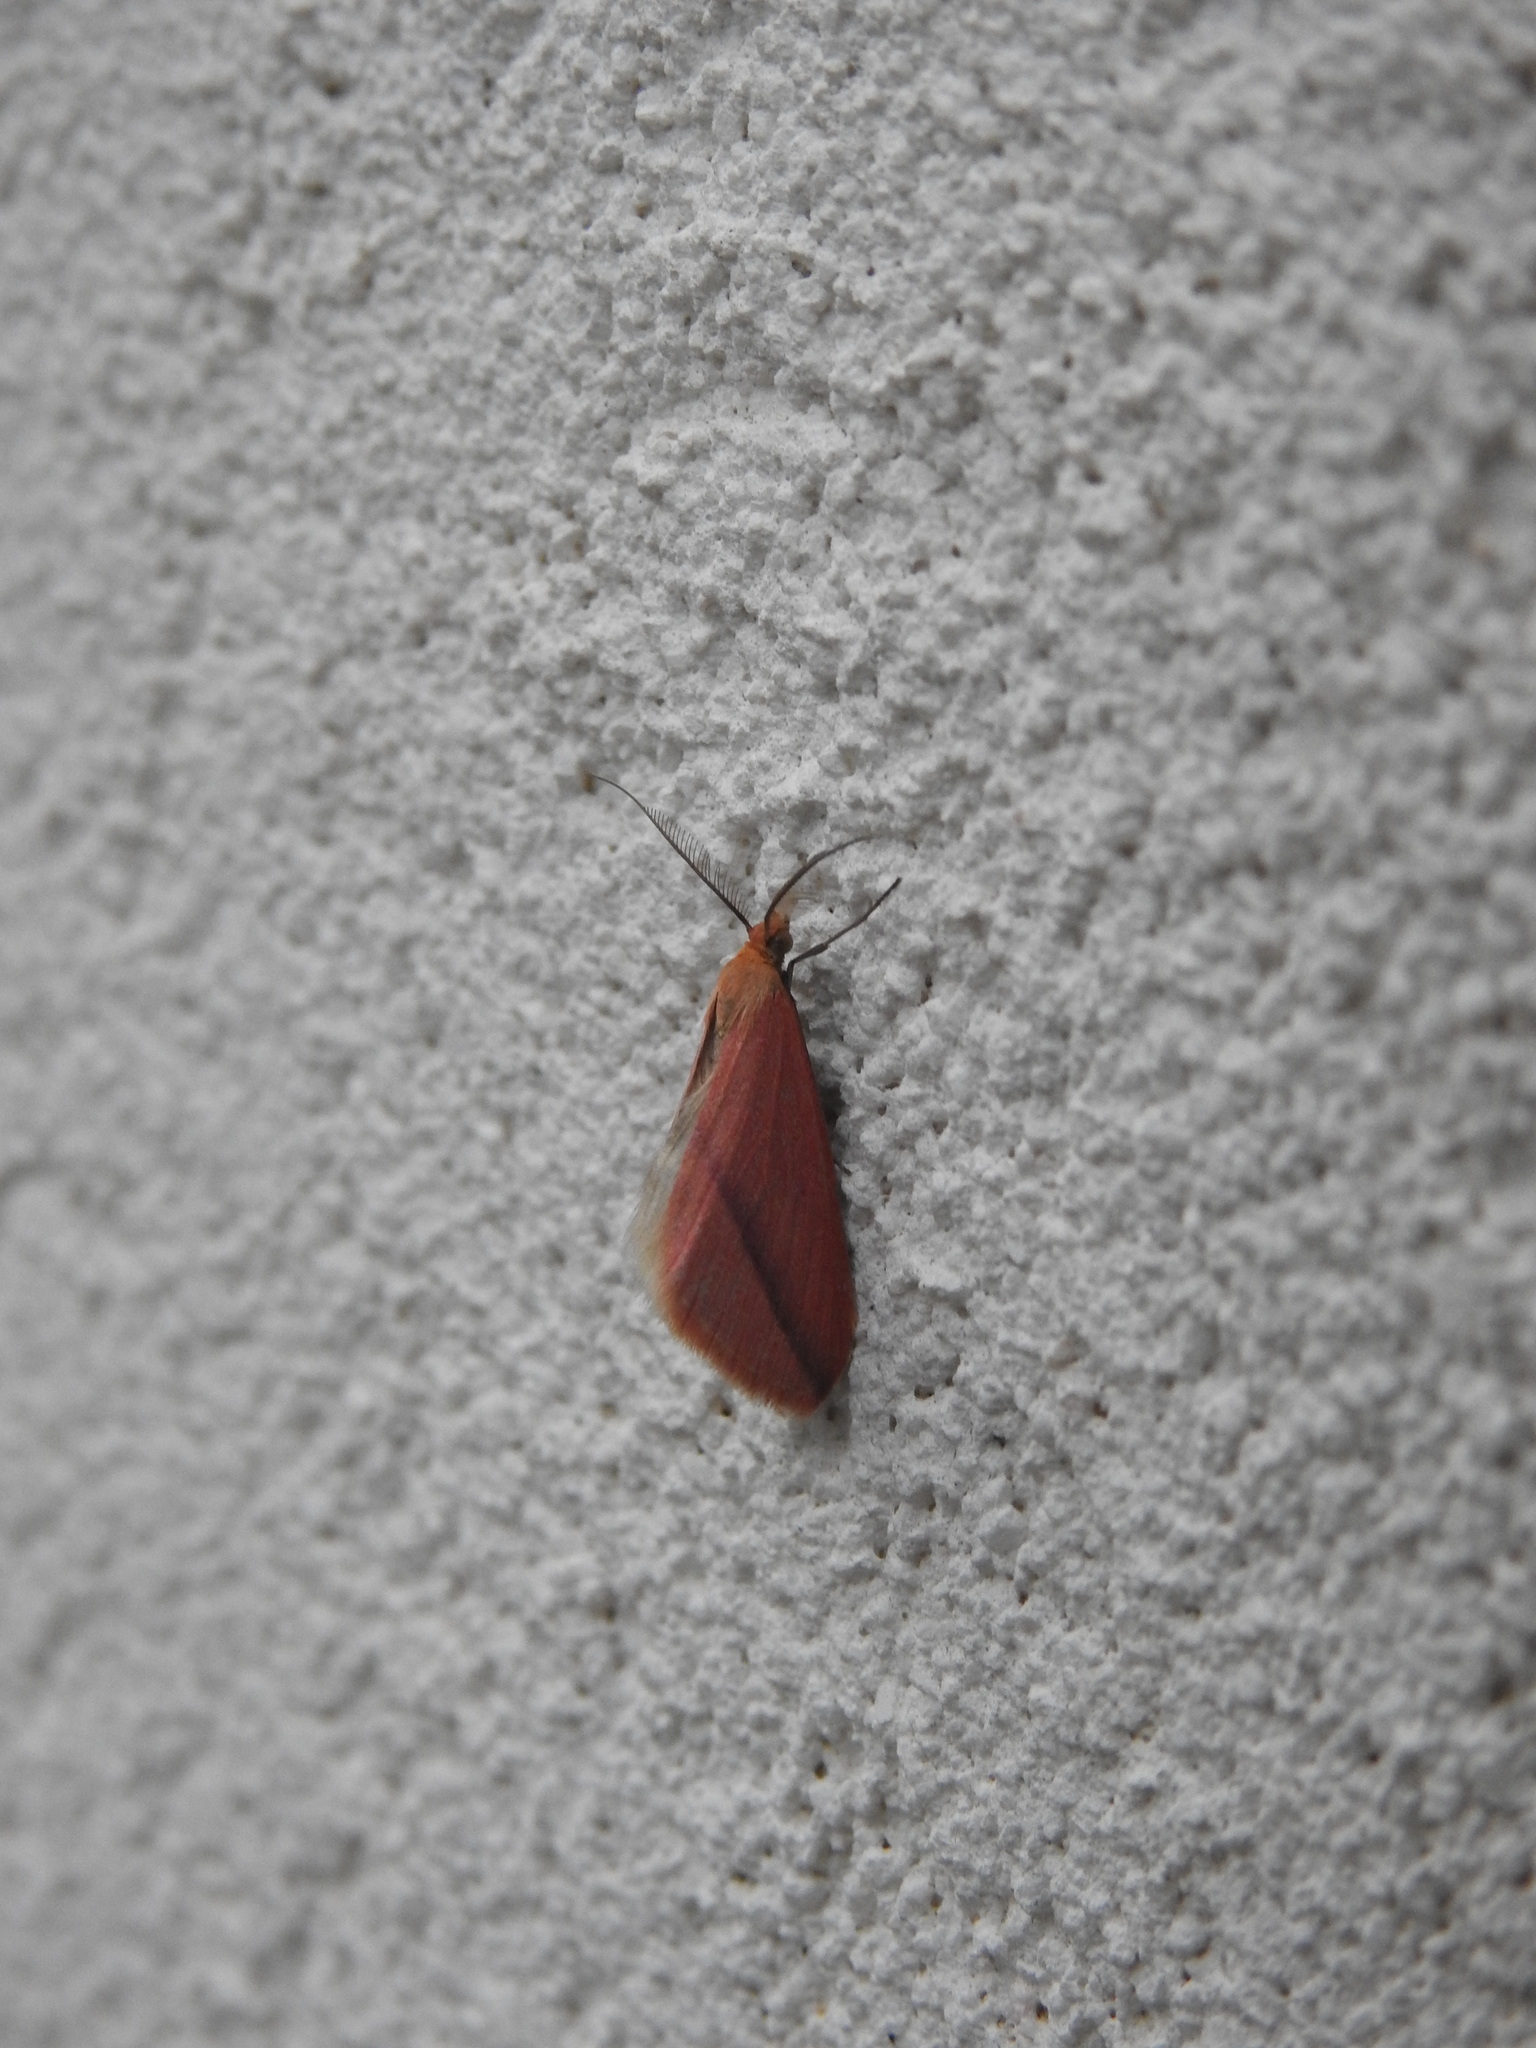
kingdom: Animalia
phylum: Arthropoda
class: Insecta
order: Lepidoptera
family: Geometridae
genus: Rhodometra
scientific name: Rhodometra sacraria
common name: Vestal
